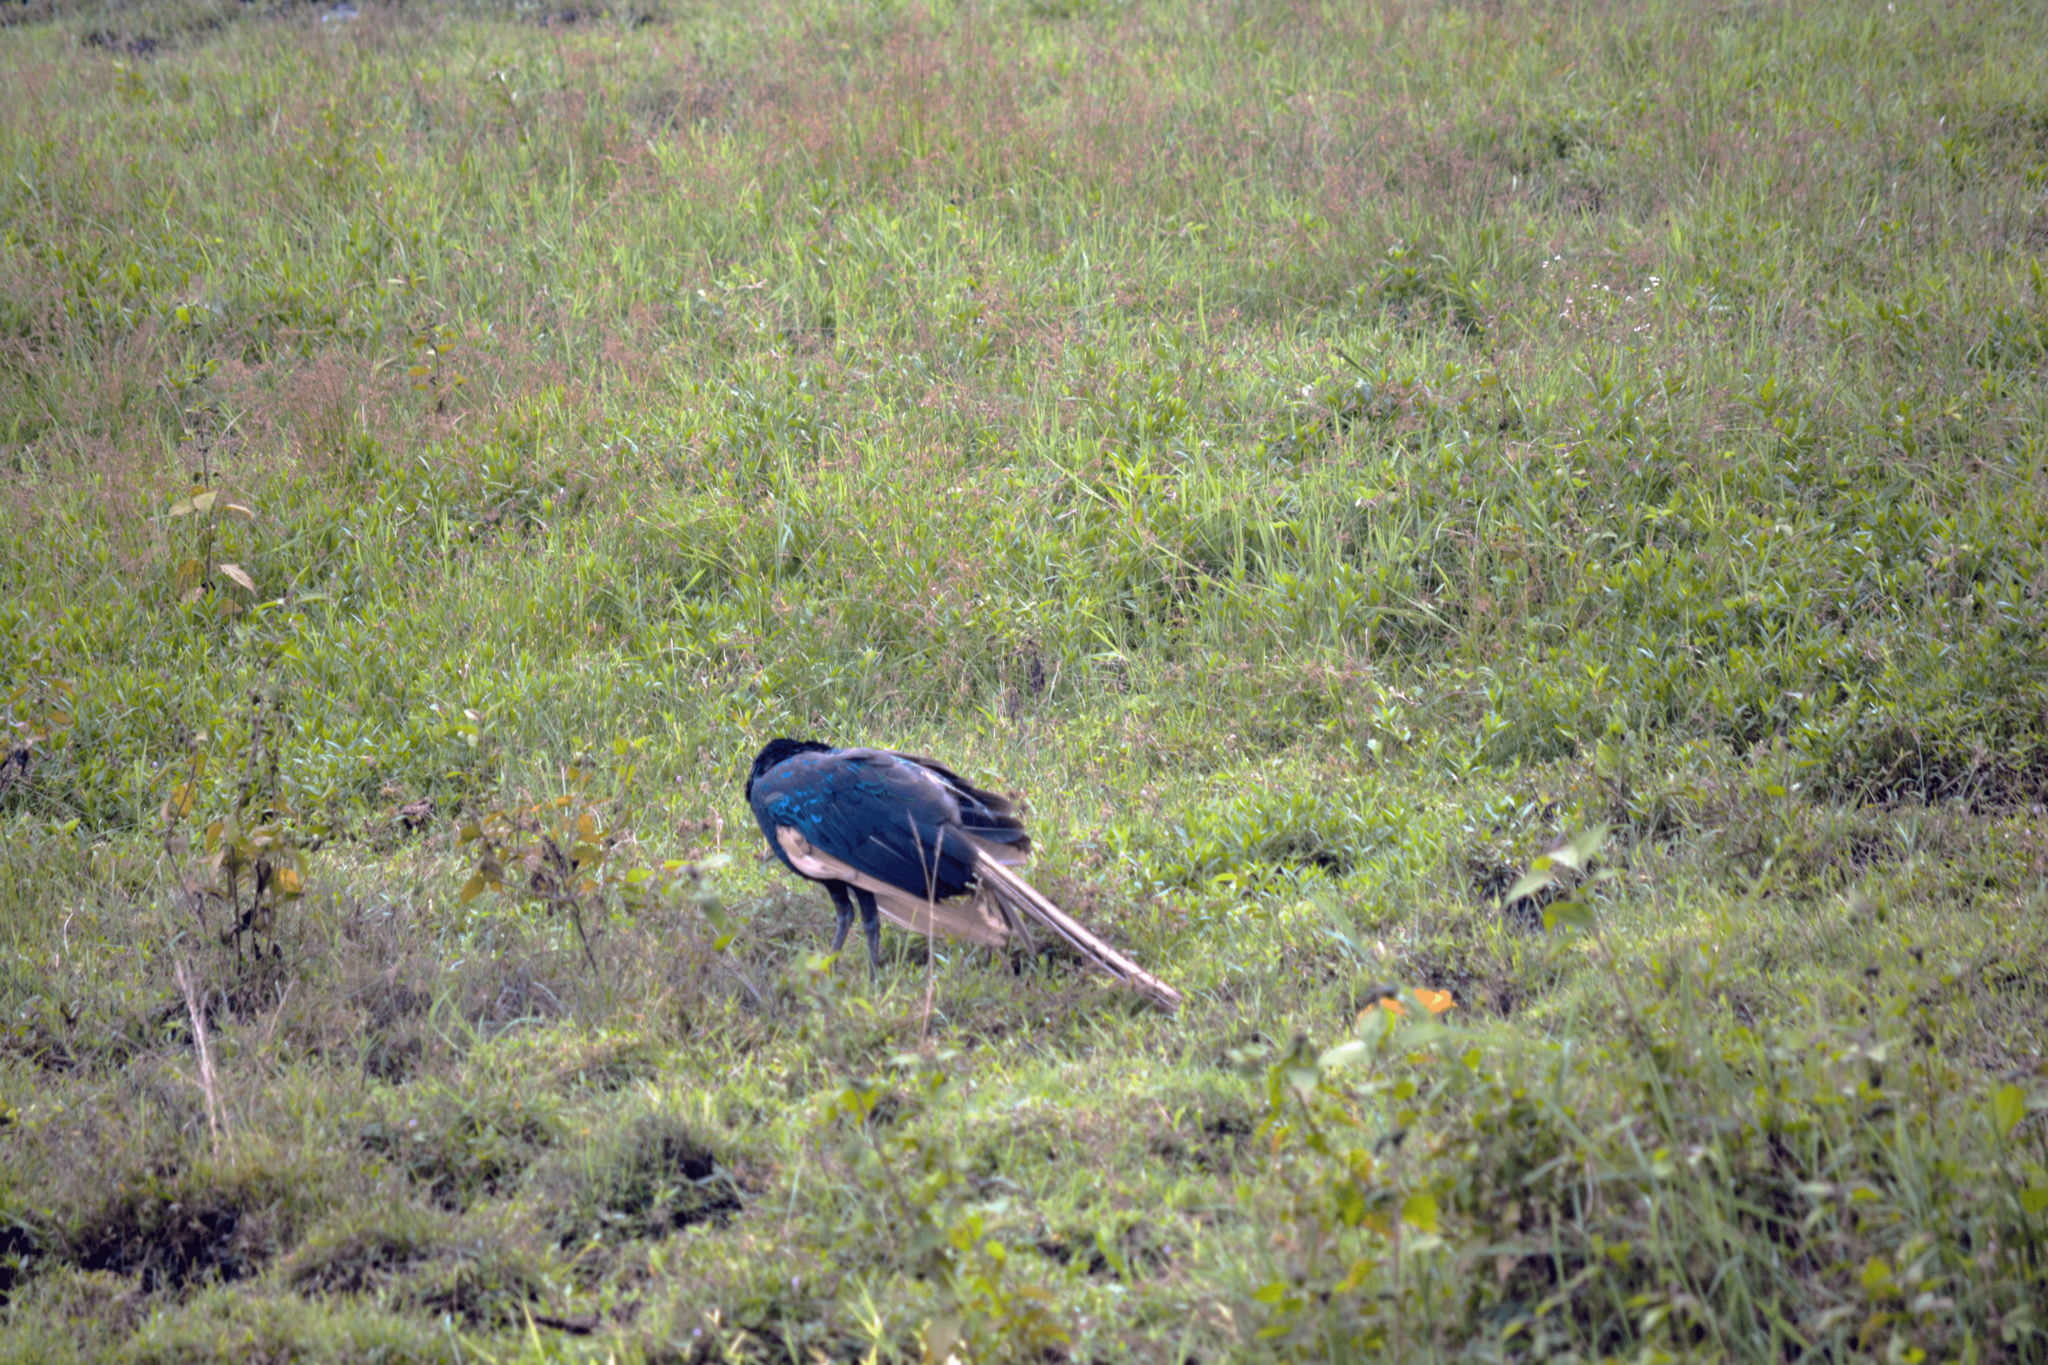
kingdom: Animalia
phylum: Chordata
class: Aves
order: Galliformes
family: Phasianidae
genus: Pavo
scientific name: Pavo muticus
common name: Green peafowl
